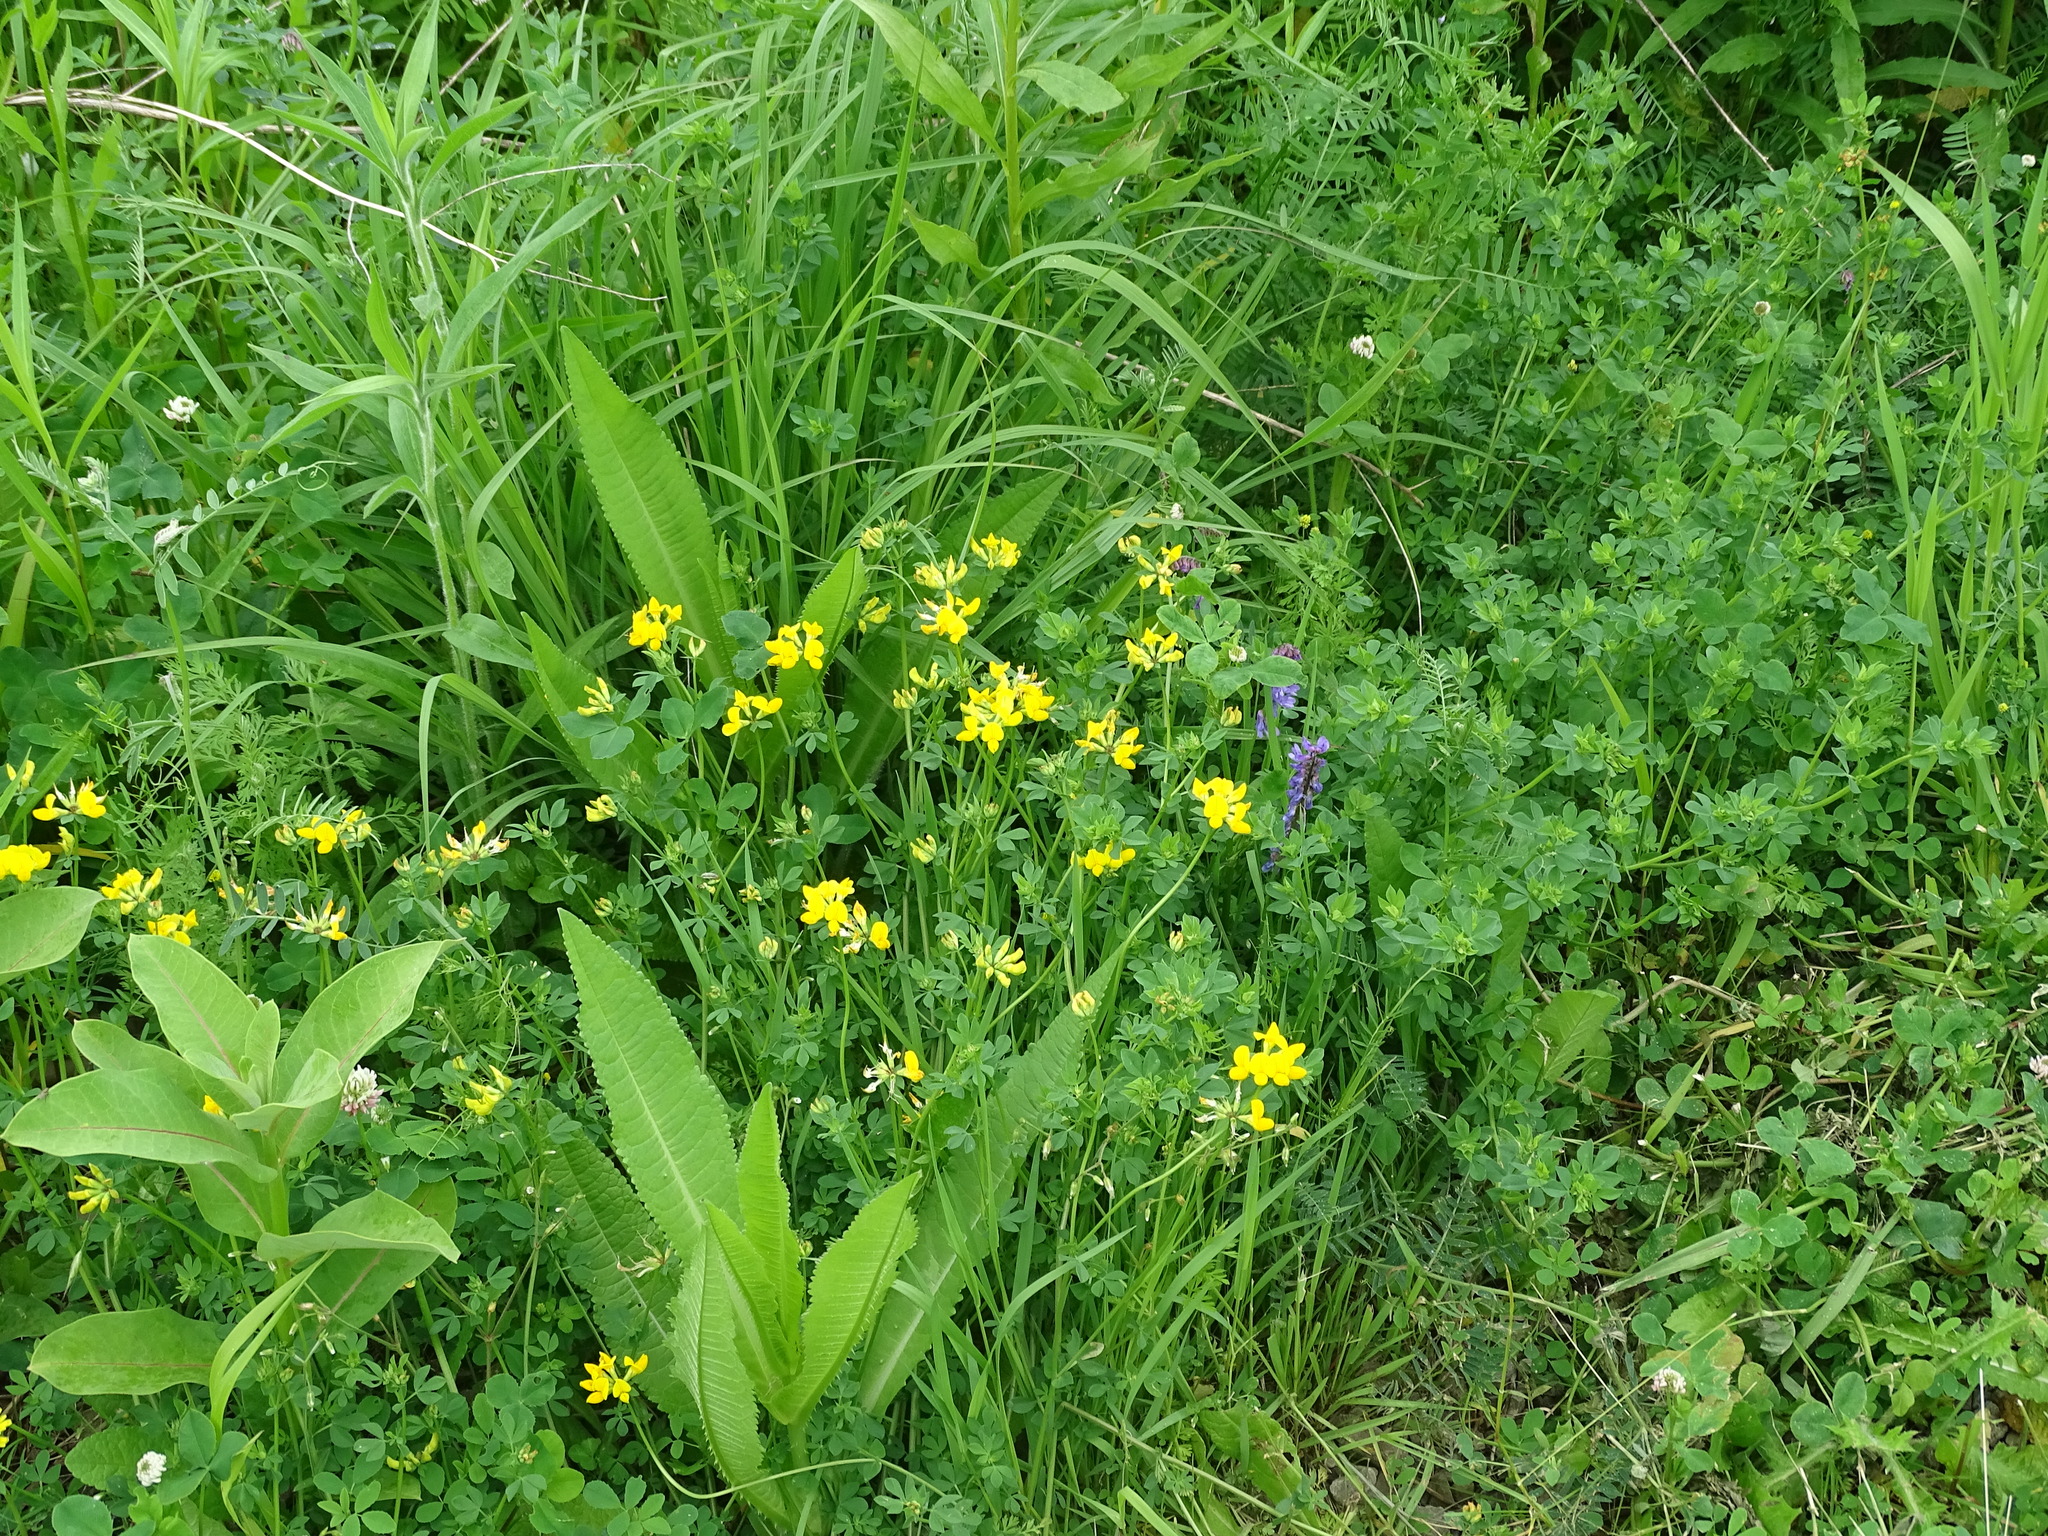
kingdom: Plantae
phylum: Tracheophyta
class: Magnoliopsida
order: Fabales
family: Fabaceae
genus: Lotus
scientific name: Lotus corniculatus
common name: Common bird's-foot-trefoil
